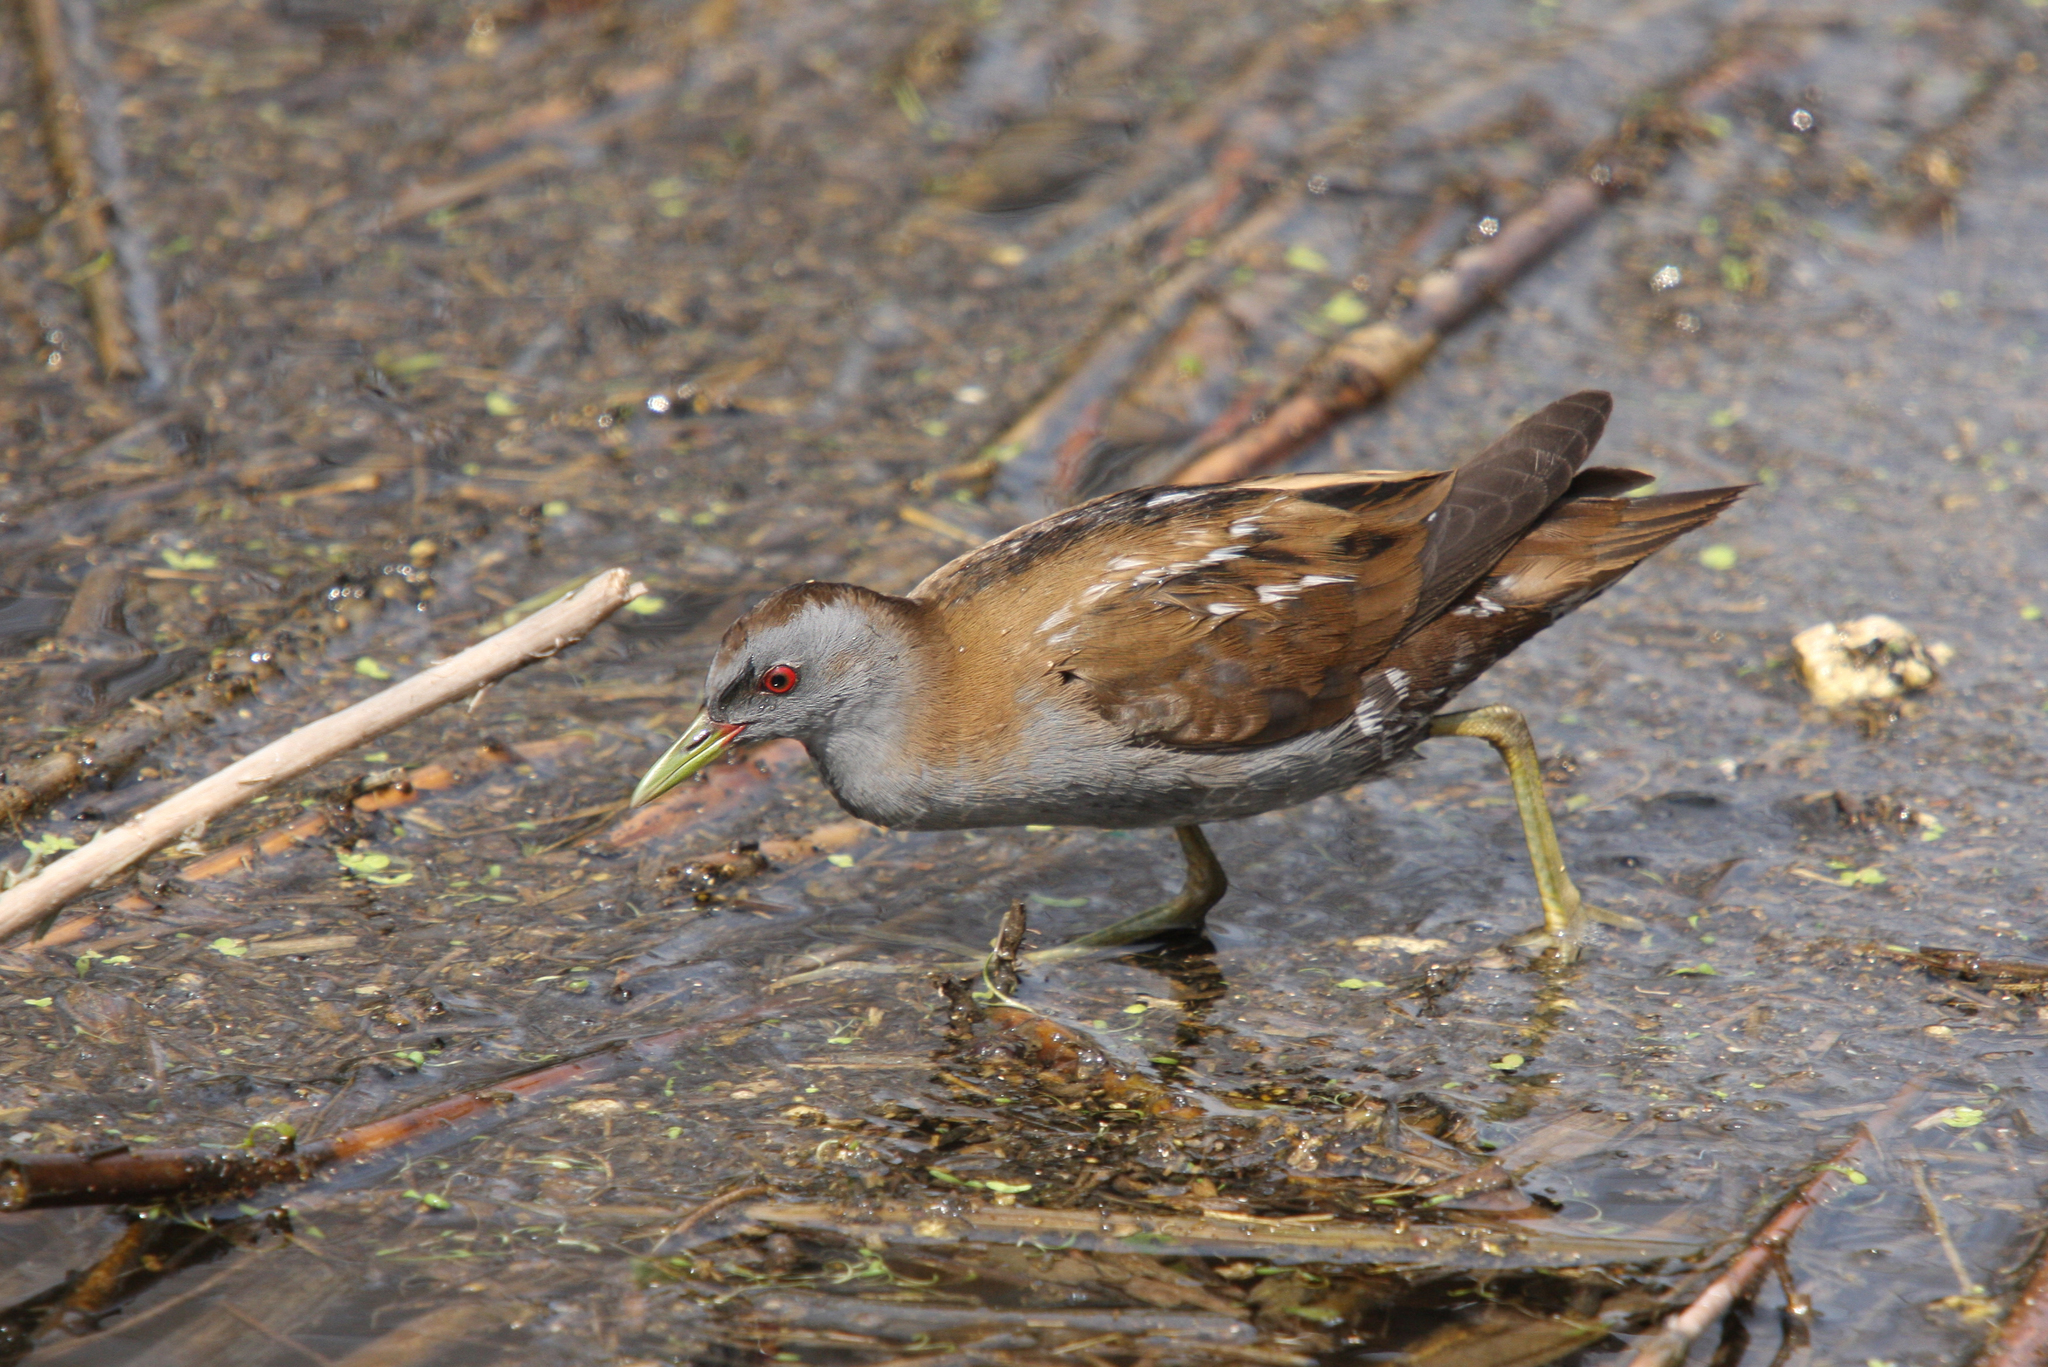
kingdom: Animalia
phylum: Chordata
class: Aves
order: Gruiformes
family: Rallidae
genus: Porzana
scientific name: Porzana parva
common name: Little crake
